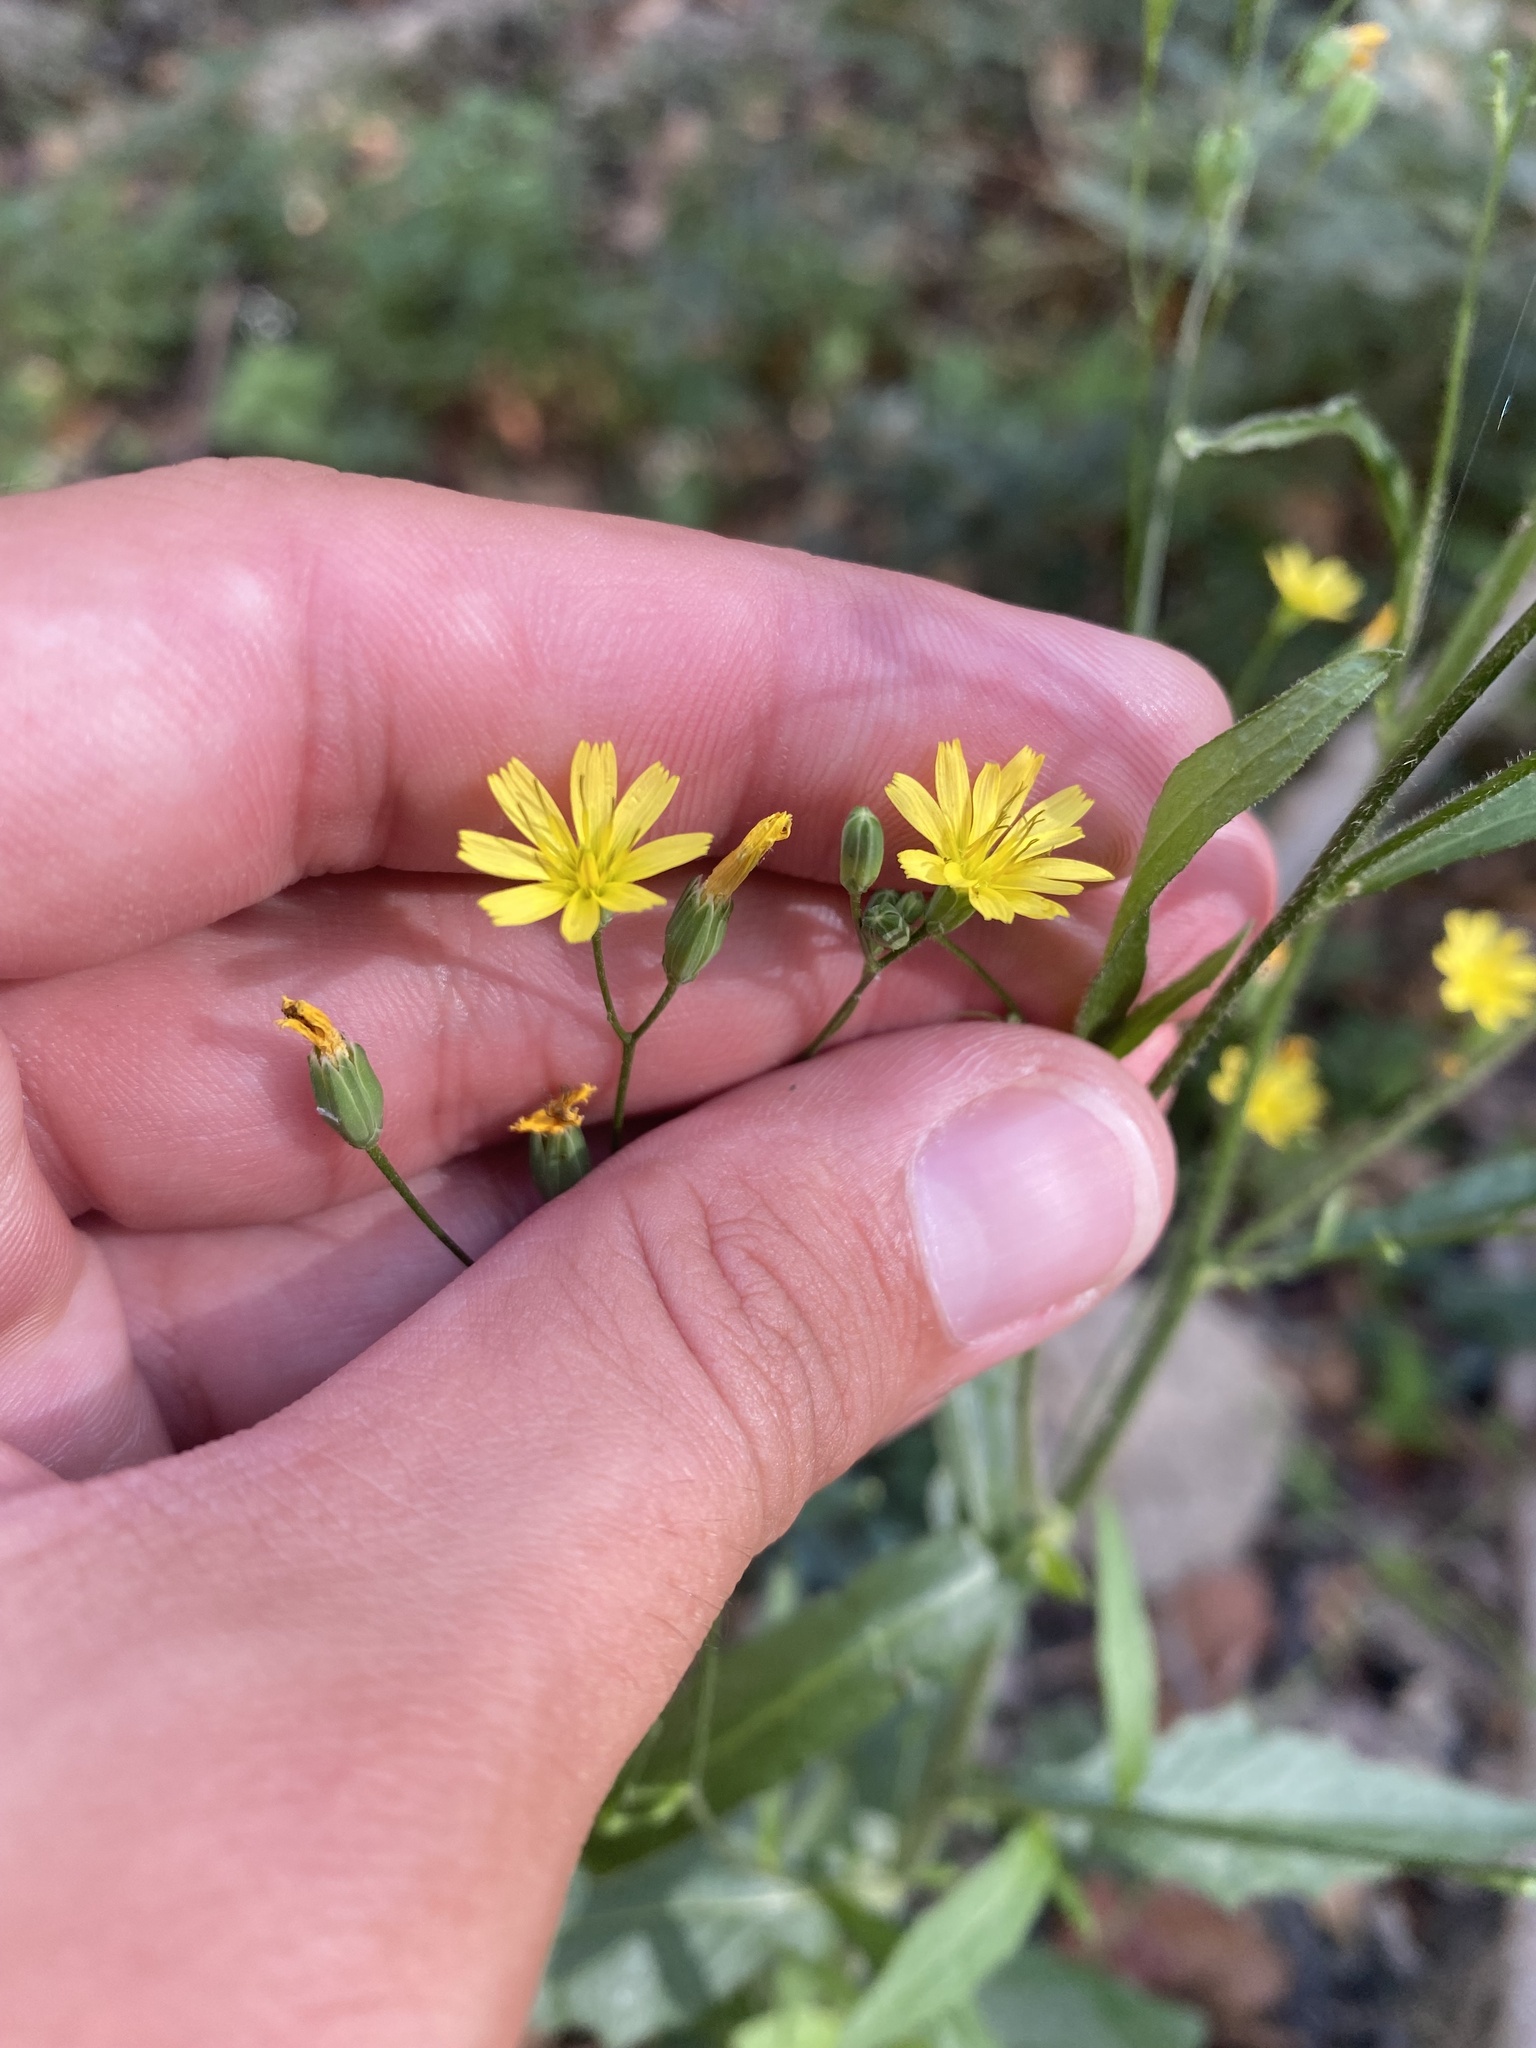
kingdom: Plantae
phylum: Tracheophyta
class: Magnoliopsida
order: Asterales
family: Asteraceae
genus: Lapsana
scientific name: Lapsana communis
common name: Nipplewort
